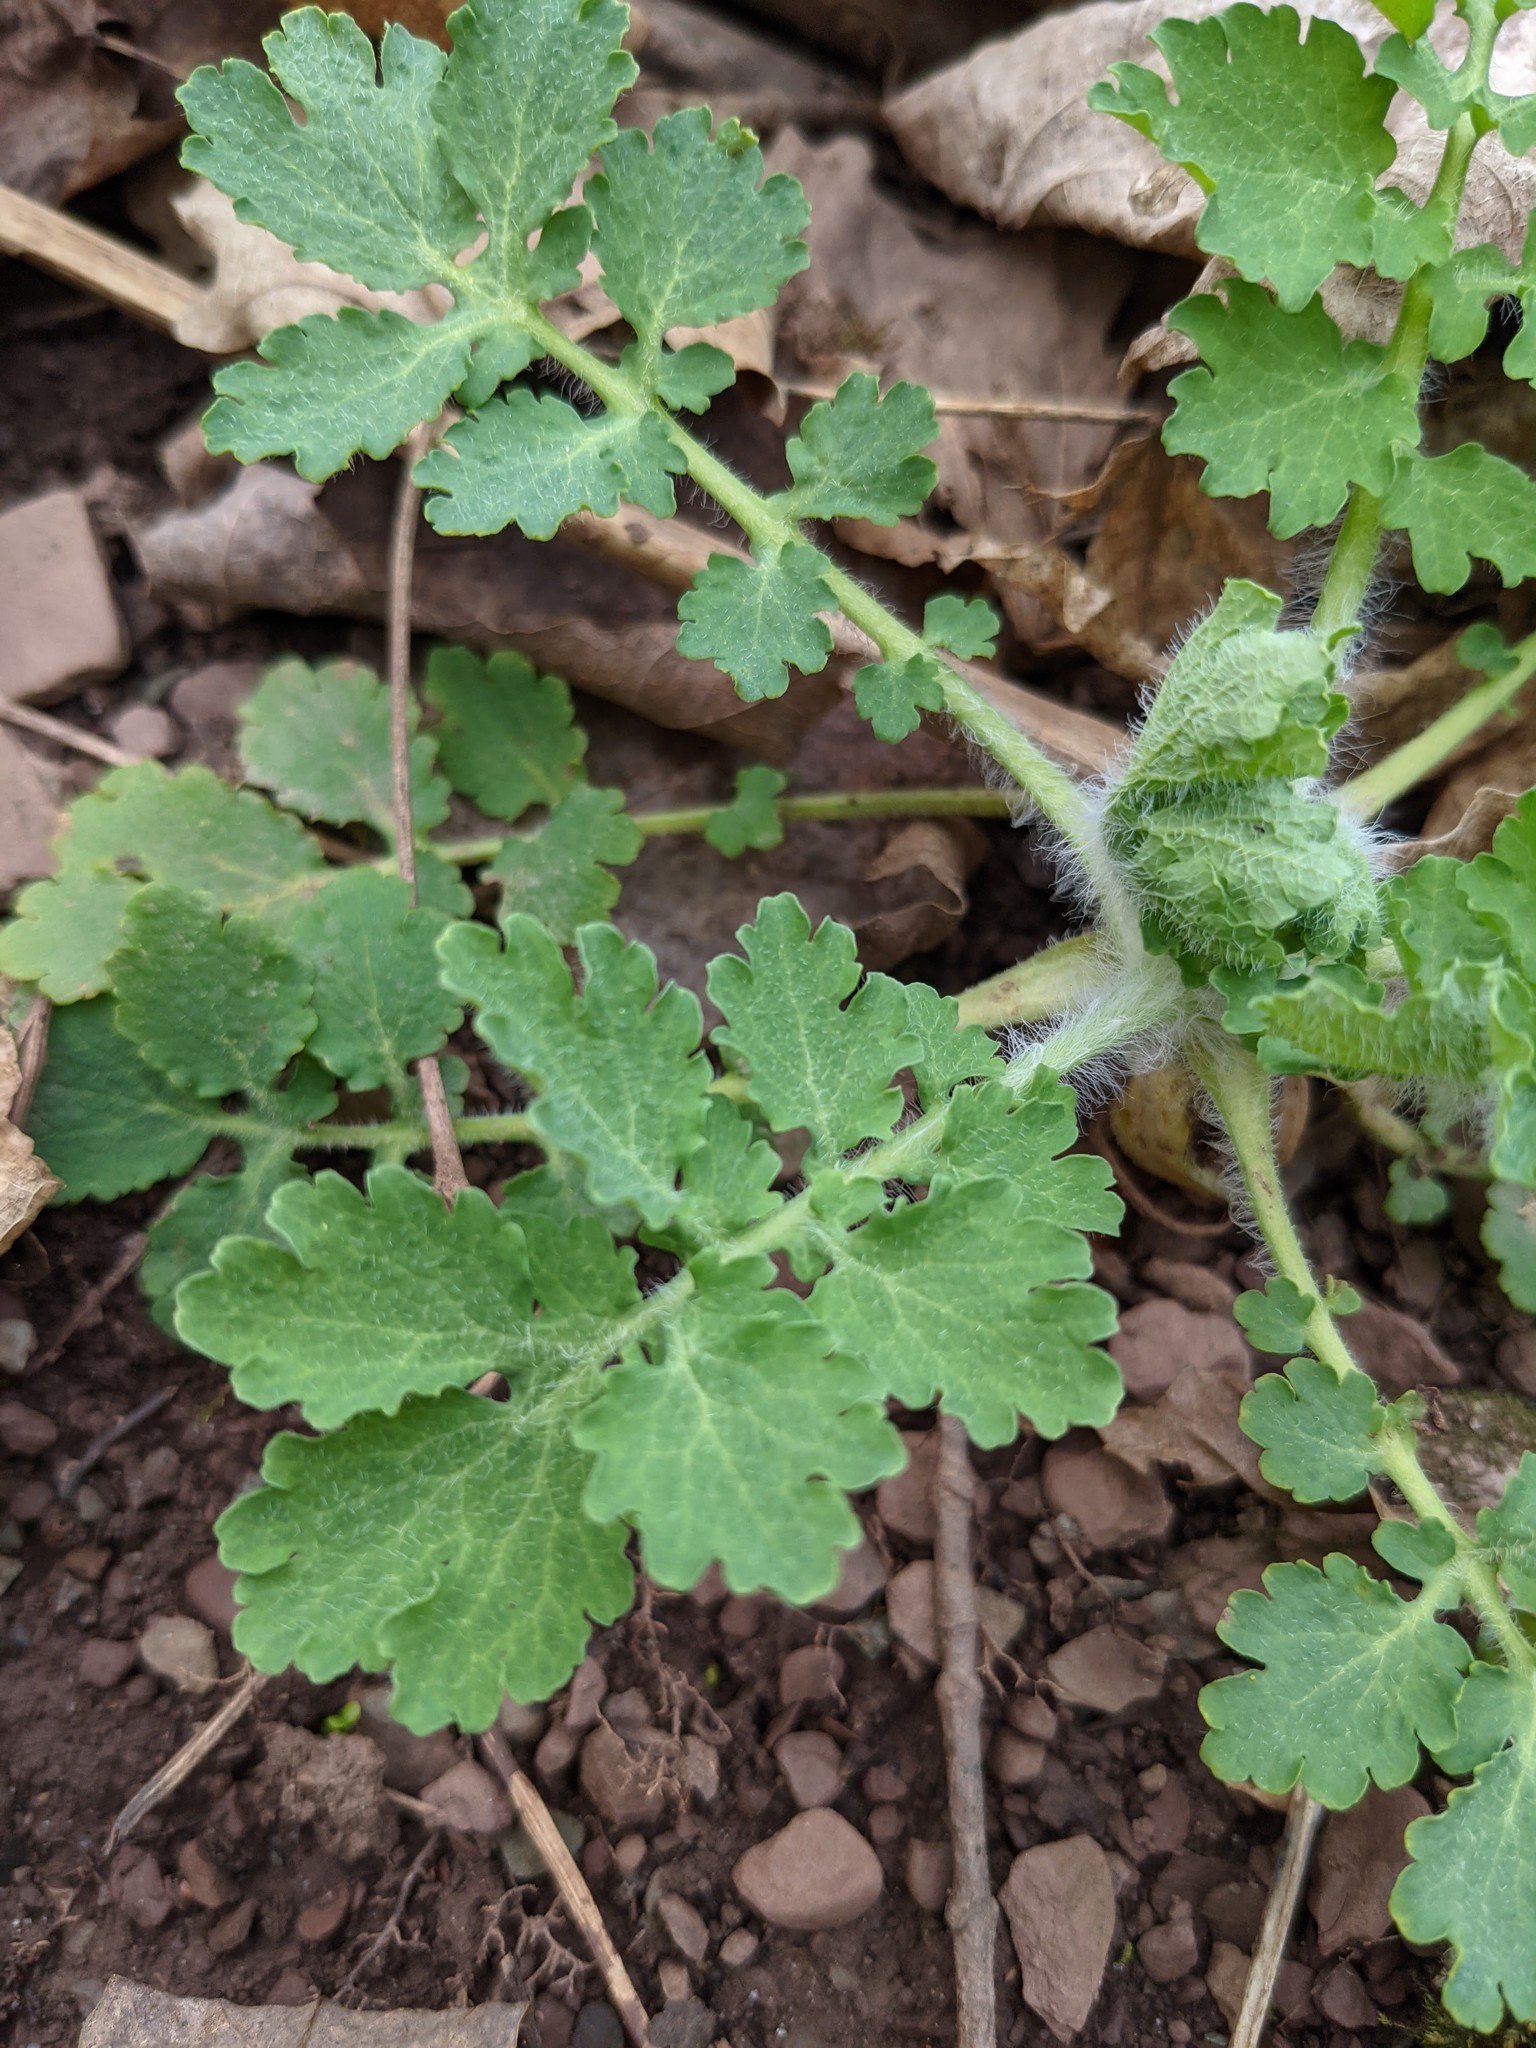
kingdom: Plantae
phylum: Tracheophyta
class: Magnoliopsida
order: Ranunculales
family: Papaveraceae
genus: Chelidonium
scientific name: Chelidonium majus
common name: Greater celandine
